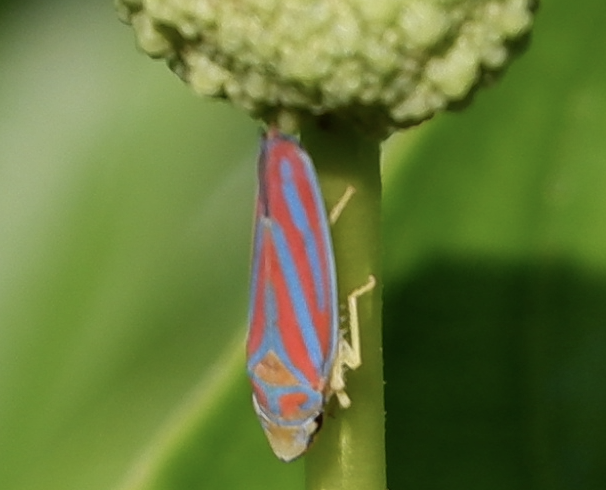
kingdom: Animalia
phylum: Arthropoda
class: Insecta
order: Hemiptera
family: Cicadellidae
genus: Graphocephala
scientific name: Graphocephala coccinea
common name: Candy-striped leafhopper
